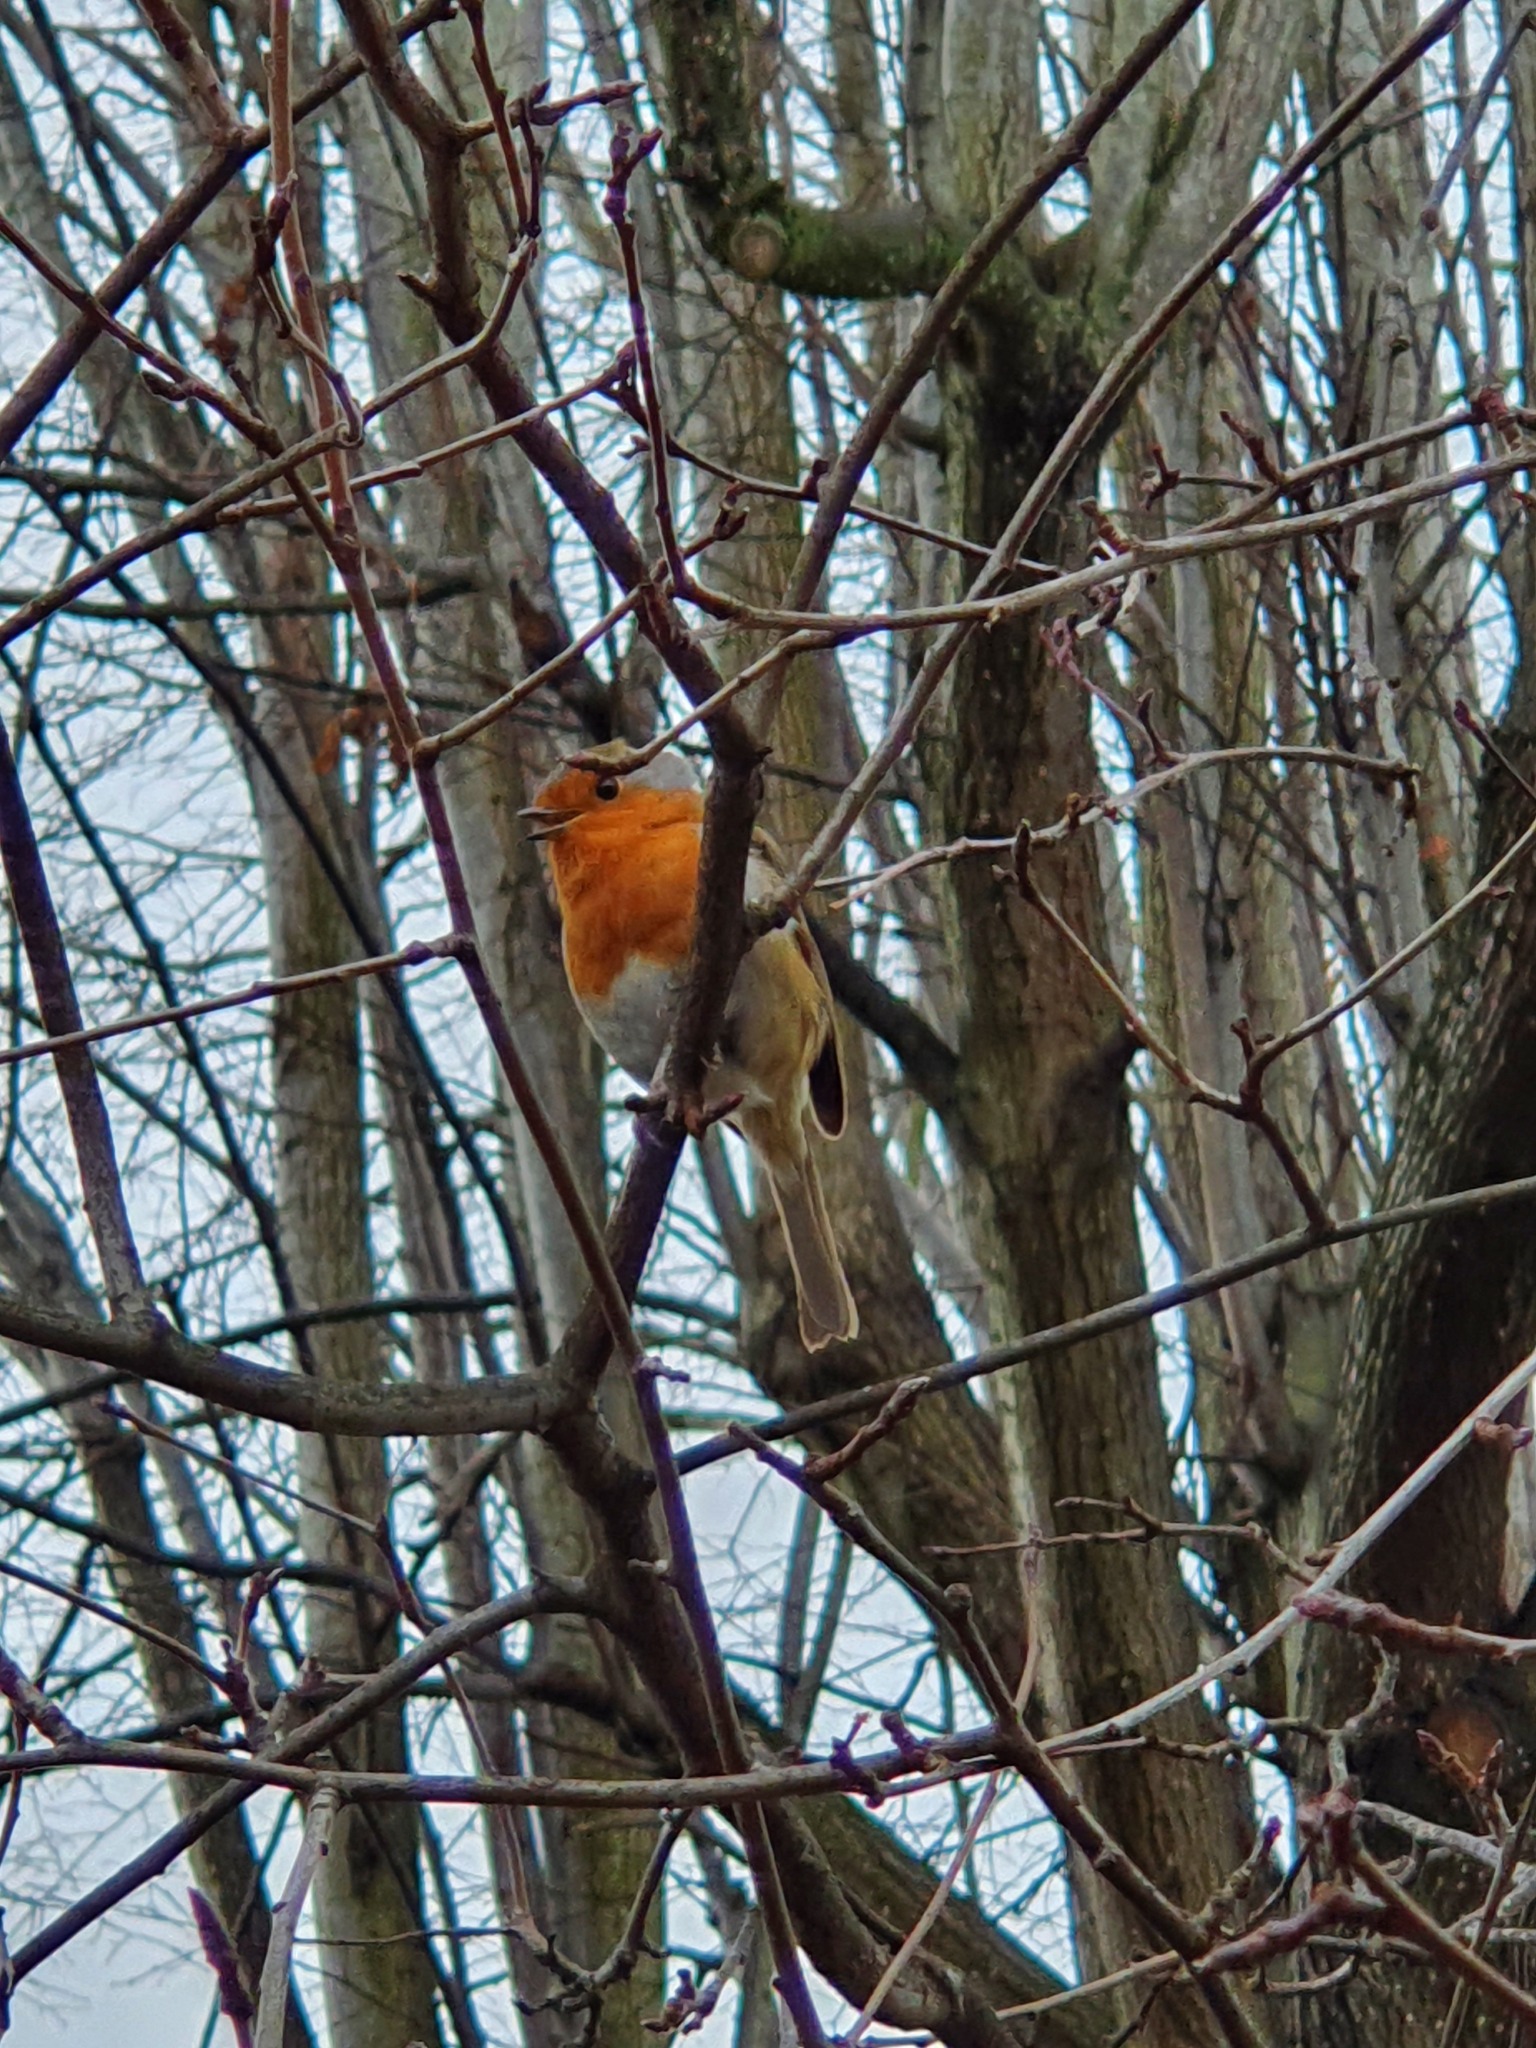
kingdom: Animalia
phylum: Chordata
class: Aves
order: Passeriformes
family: Muscicapidae
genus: Erithacus
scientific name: Erithacus rubecula
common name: European robin
